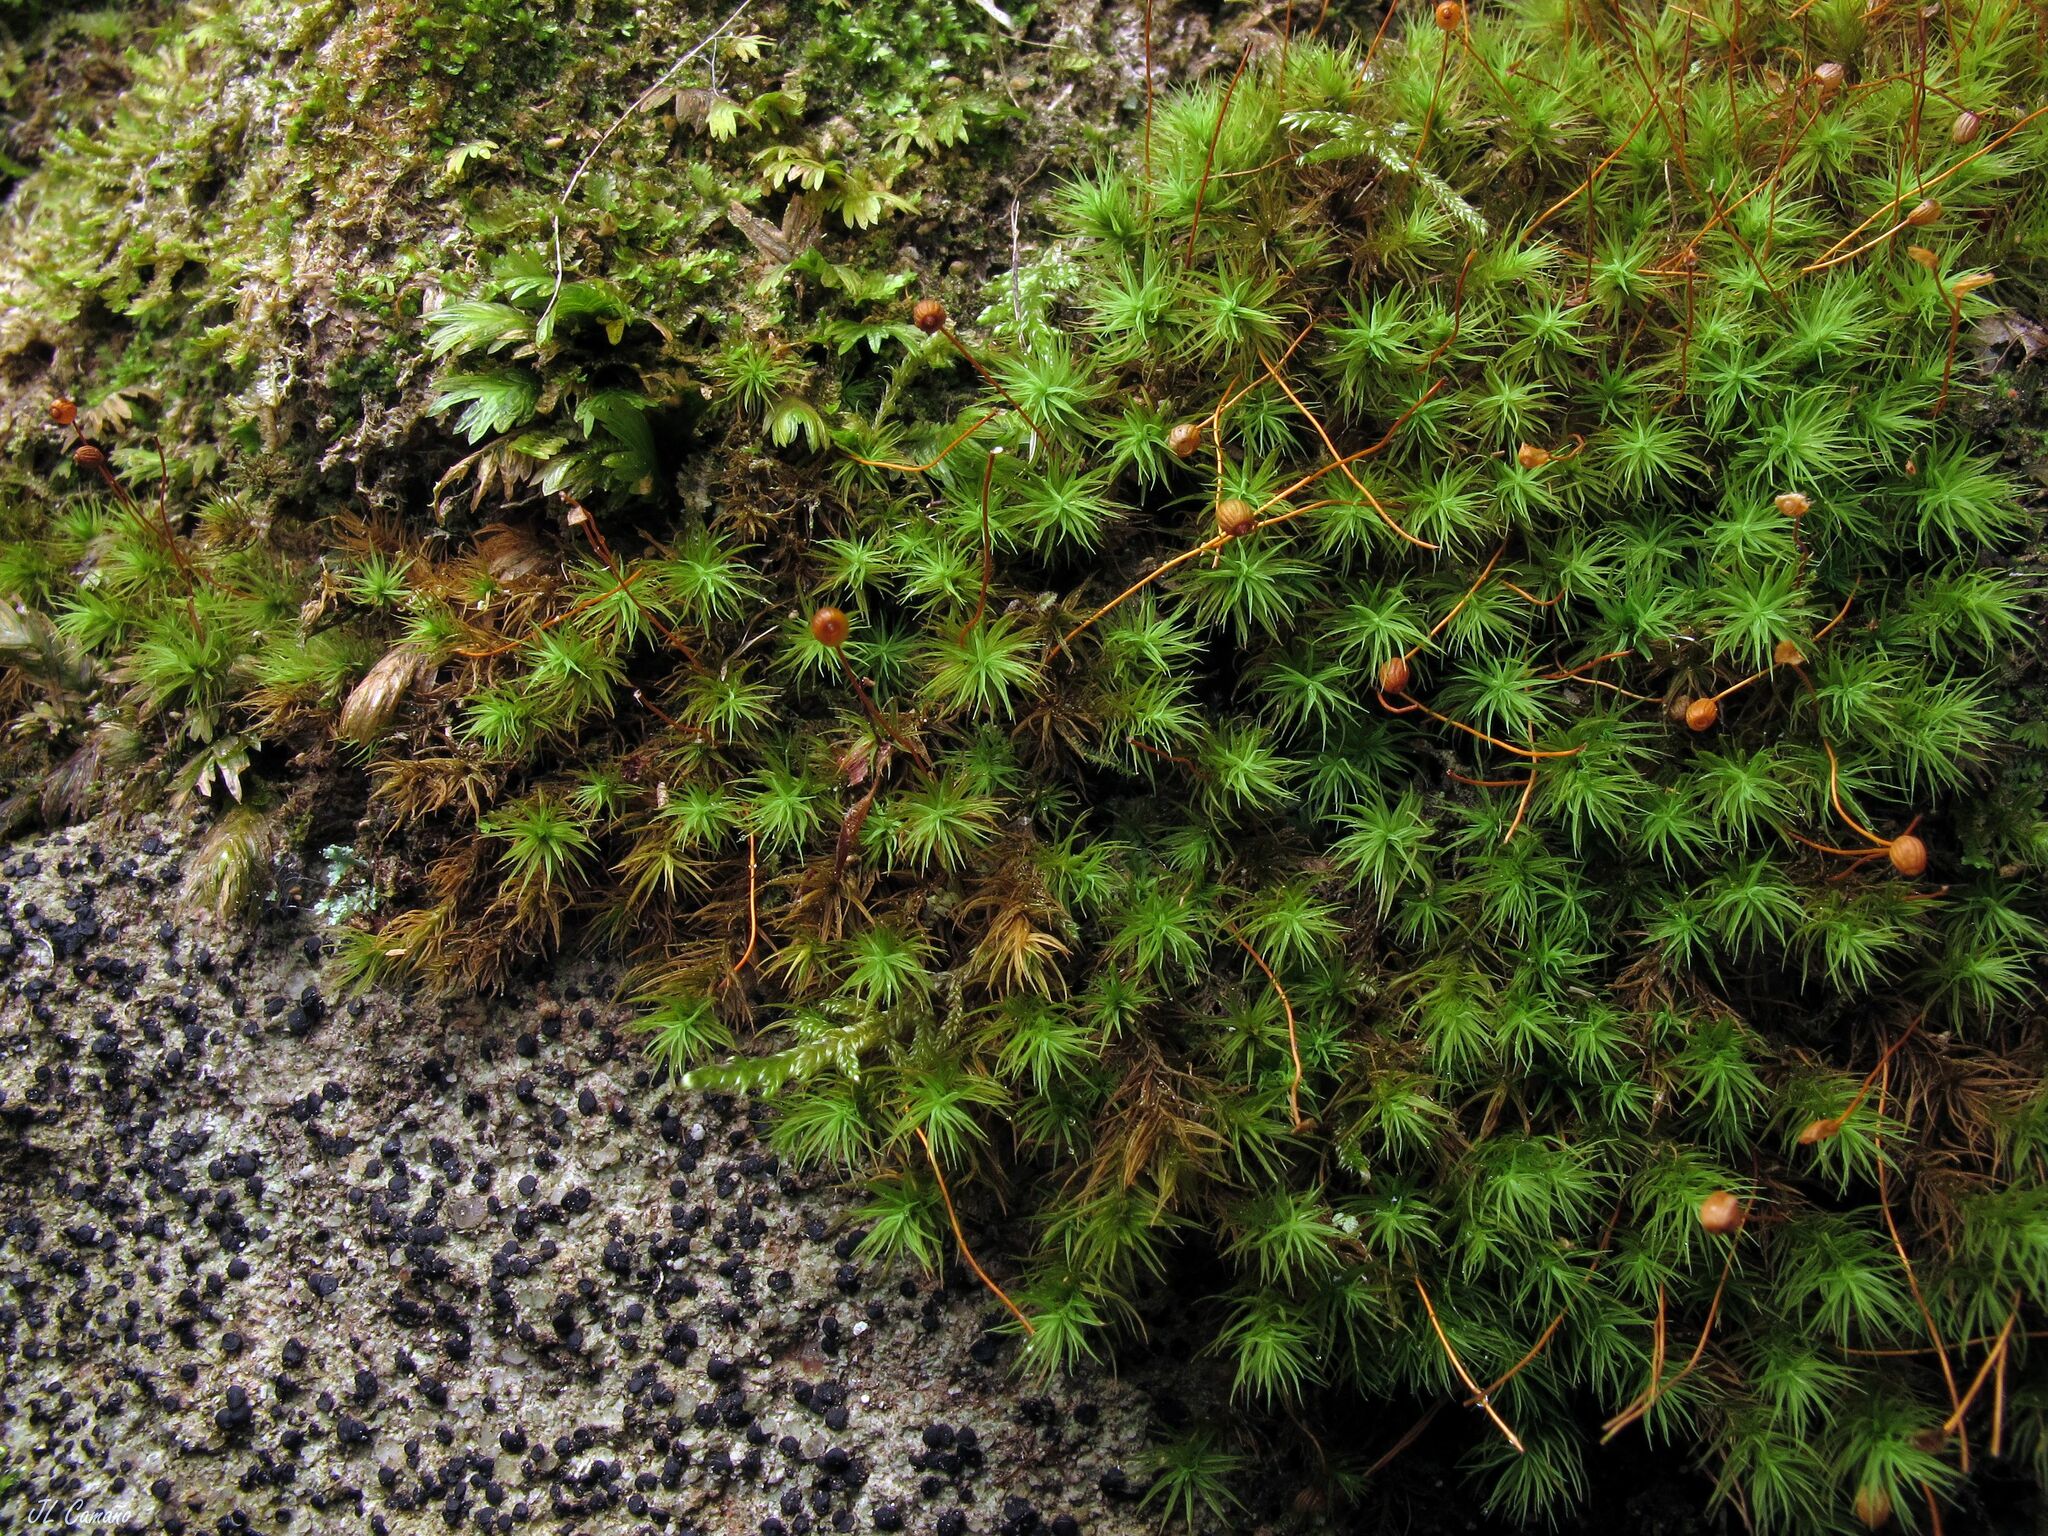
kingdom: Plantae
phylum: Bryophyta
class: Bryopsida
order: Bartramiales
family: Bartramiaceae
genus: Bartramia
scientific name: Bartramia ithyphylla
